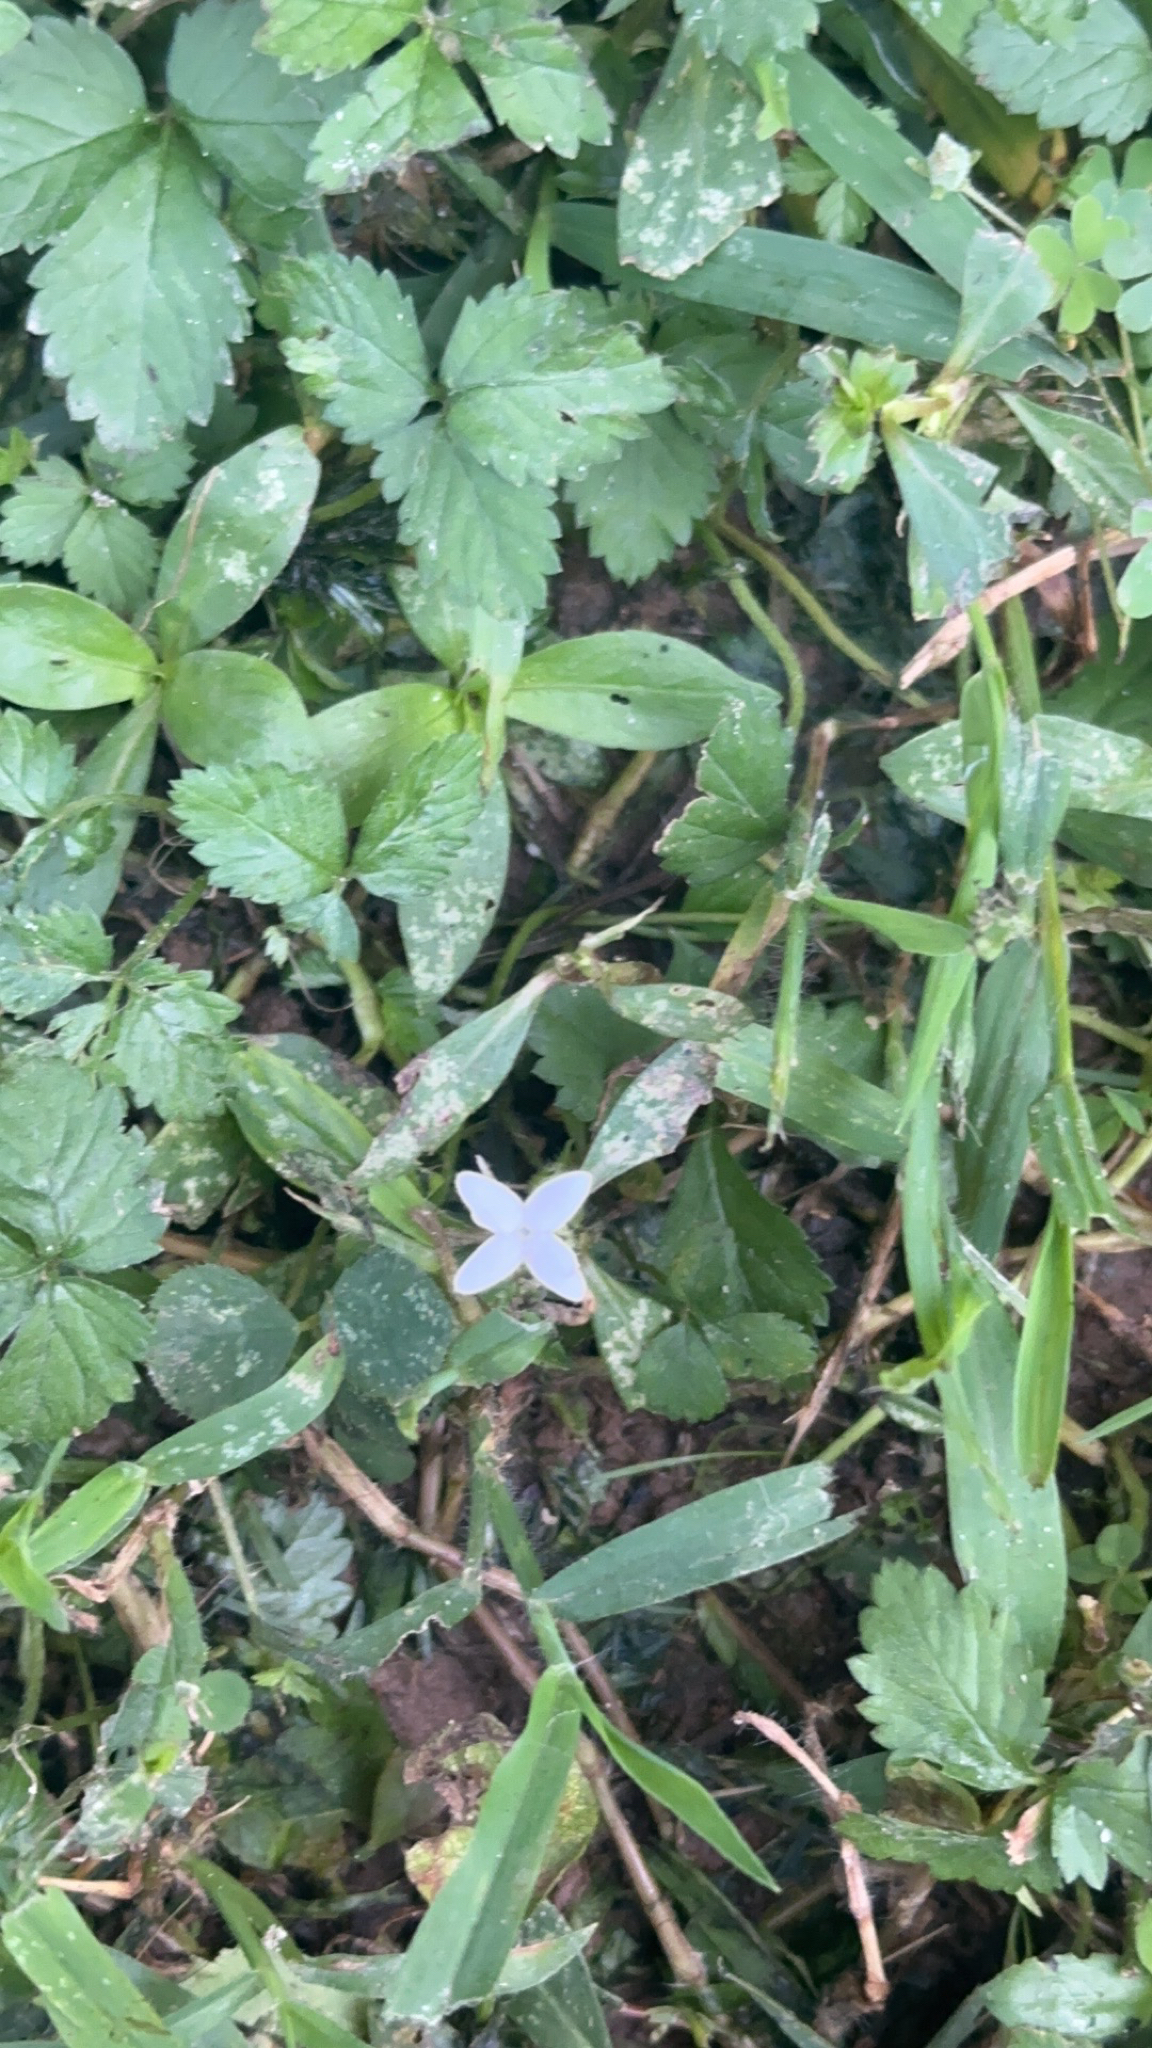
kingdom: Plantae
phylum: Tracheophyta
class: Magnoliopsida
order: Gentianales
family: Rubiaceae
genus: Diodia
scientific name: Diodia virginiana
